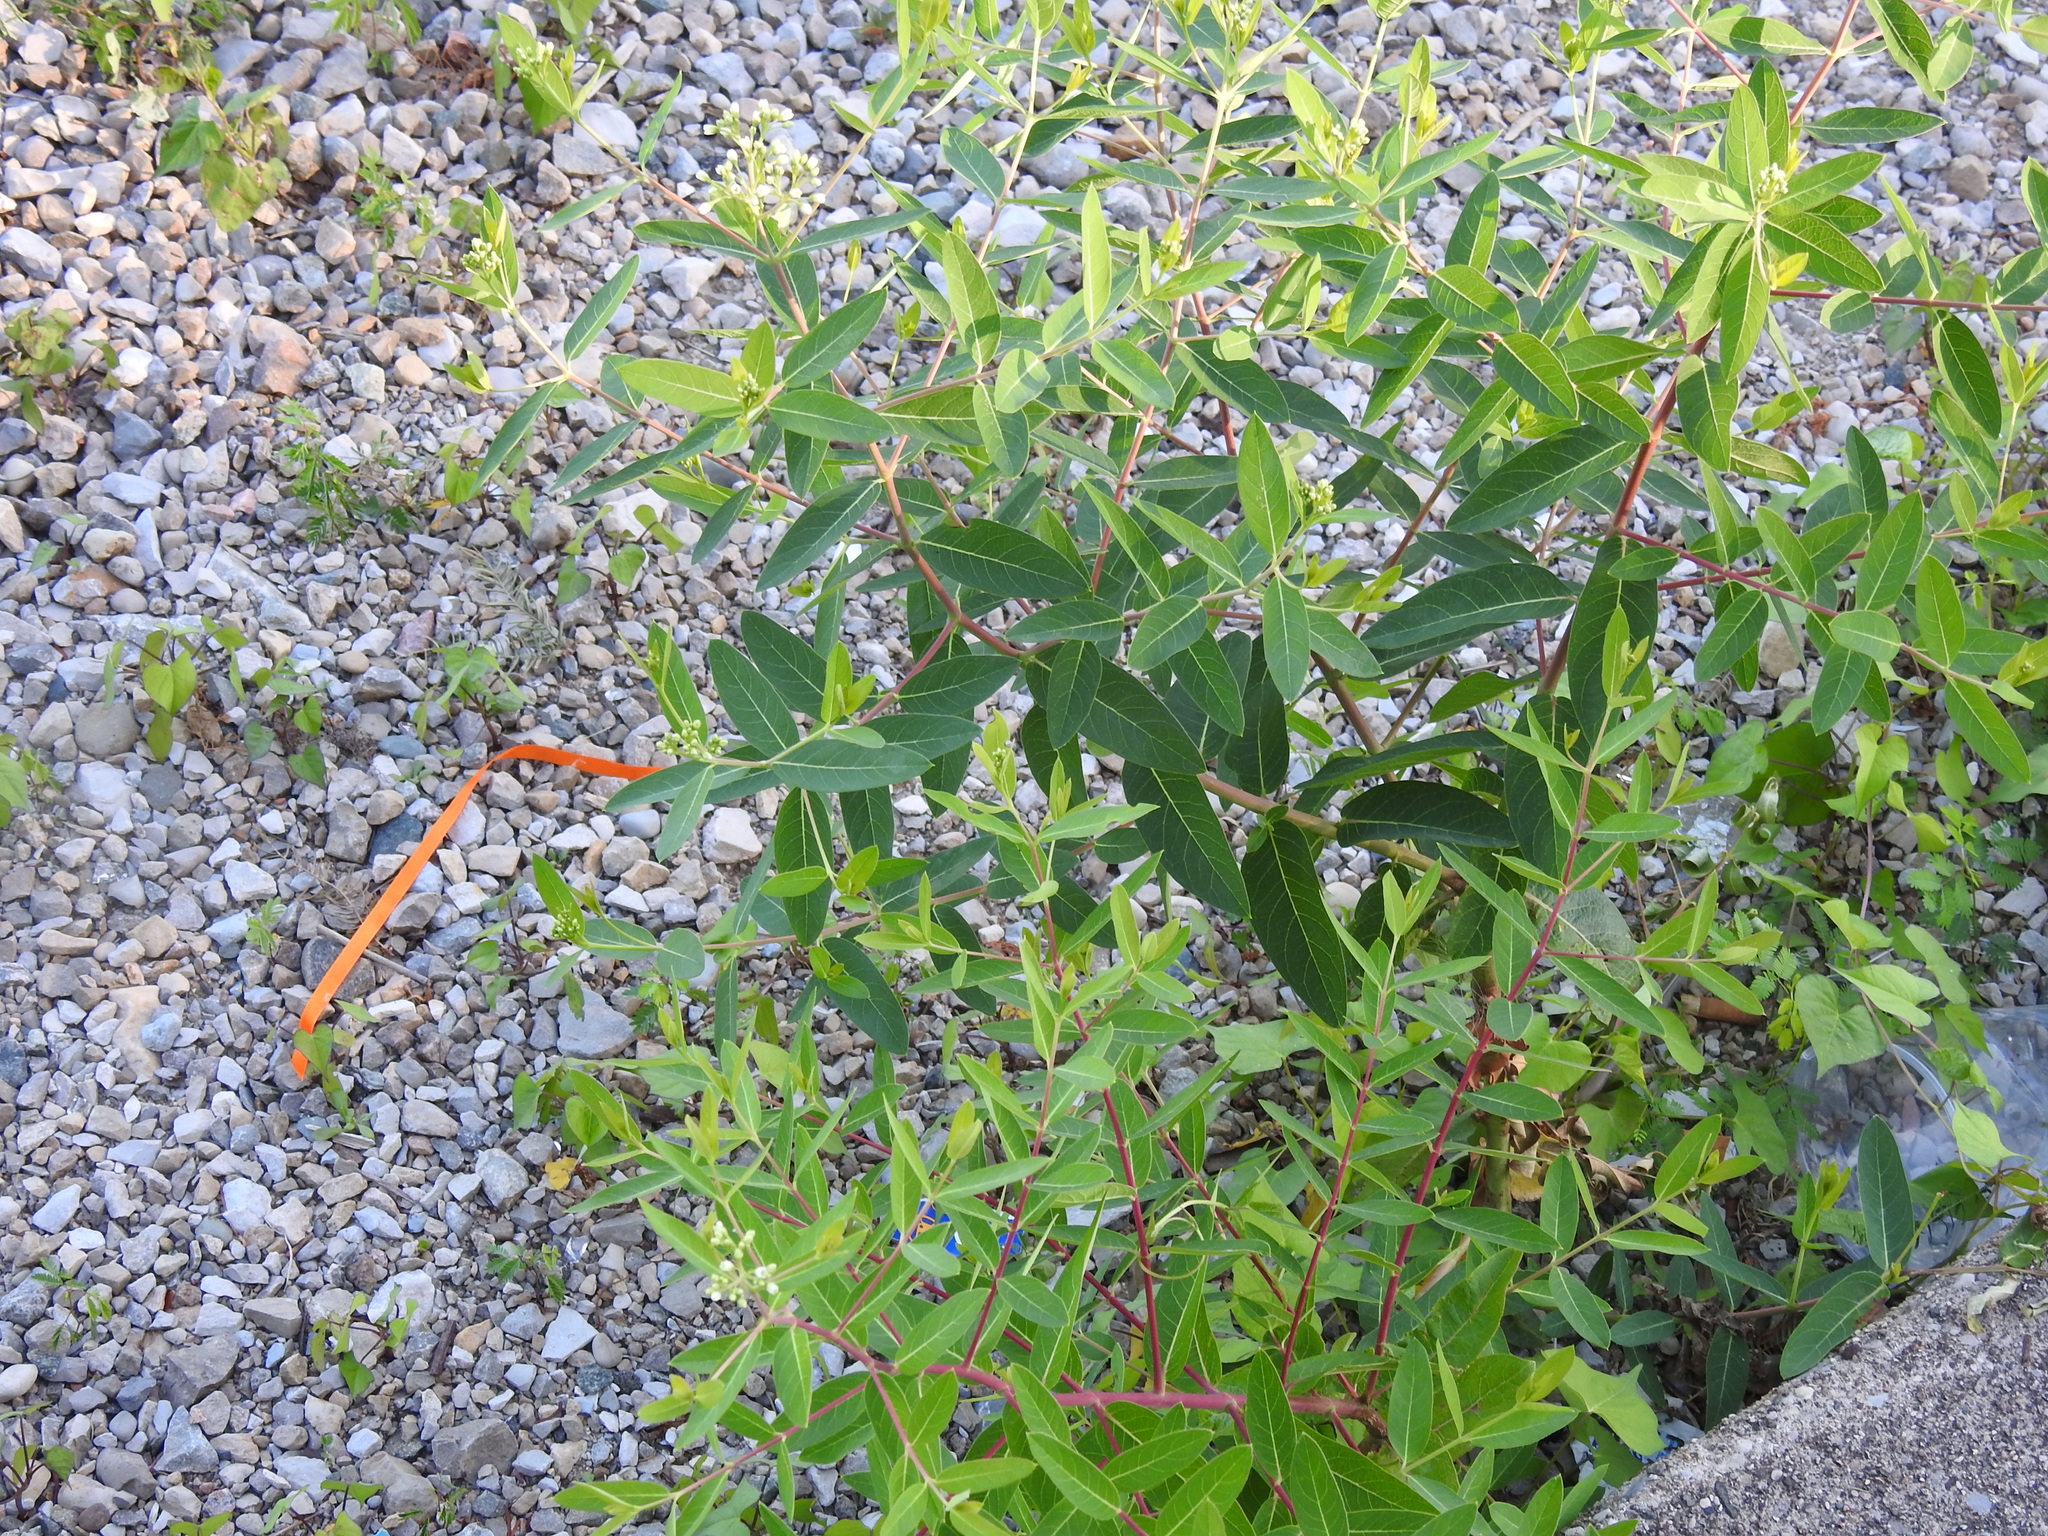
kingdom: Plantae
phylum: Tracheophyta
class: Magnoliopsida
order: Gentianales
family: Apocynaceae
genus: Apocynum
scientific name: Apocynum cannabinum
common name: Hemp dogbane
